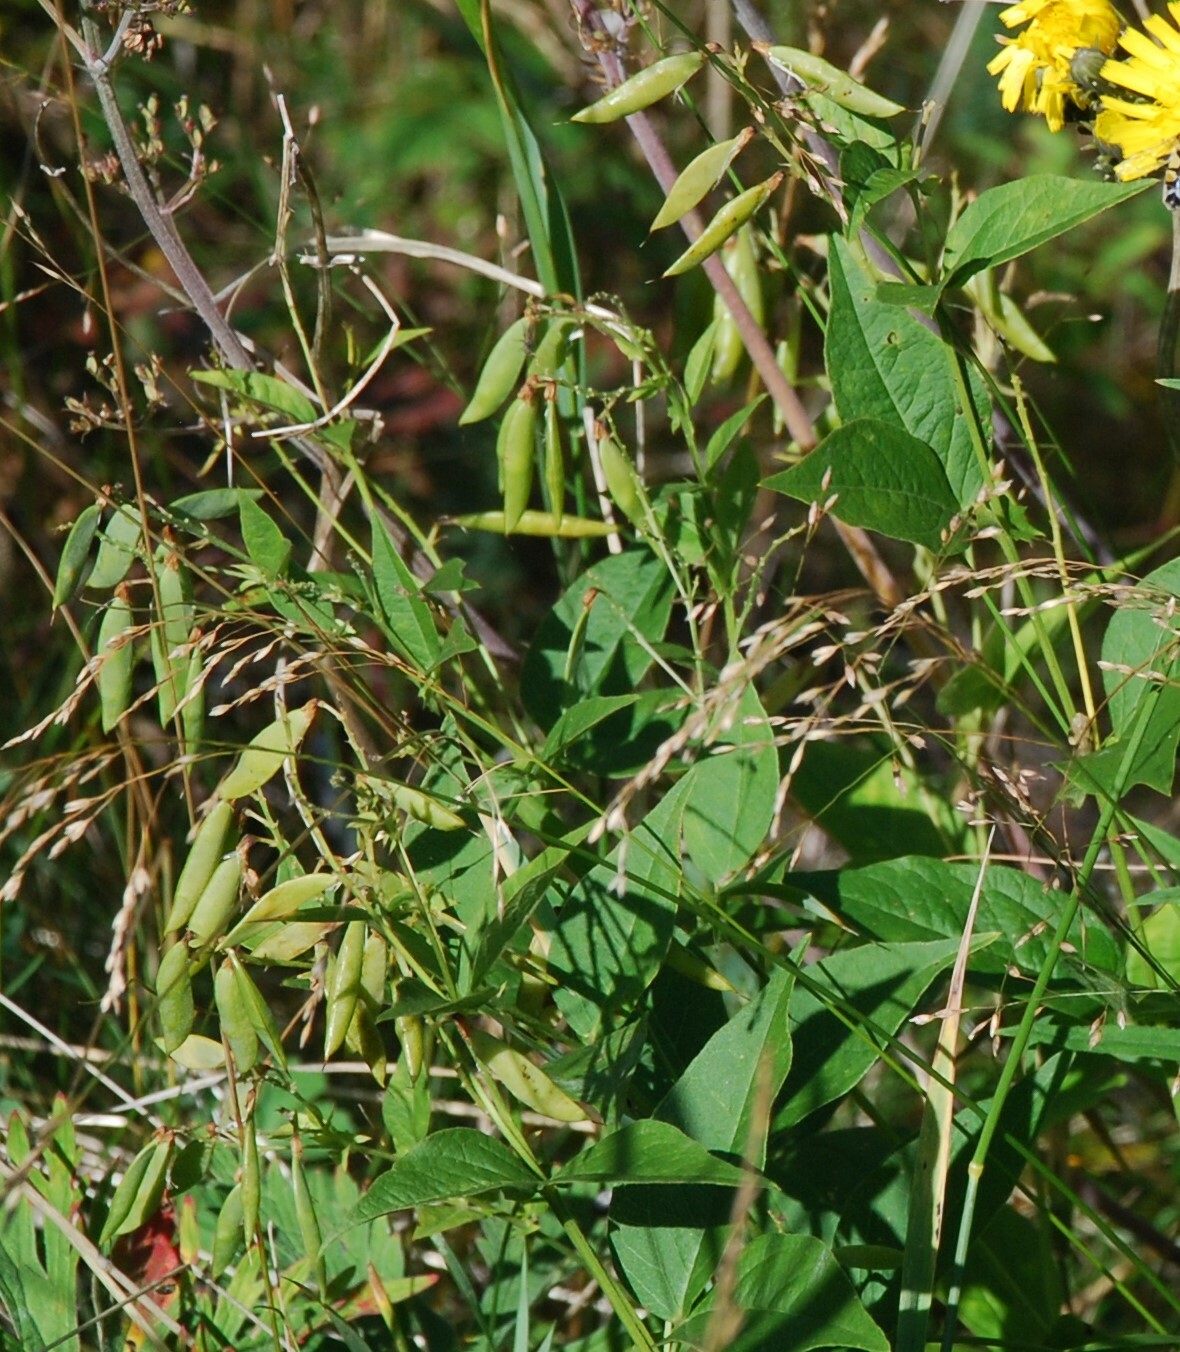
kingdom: Plantae
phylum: Tracheophyta
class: Magnoliopsida
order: Fabales
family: Fabaceae
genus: Vicia
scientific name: Vicia unijuga
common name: Two-leaf vetch
